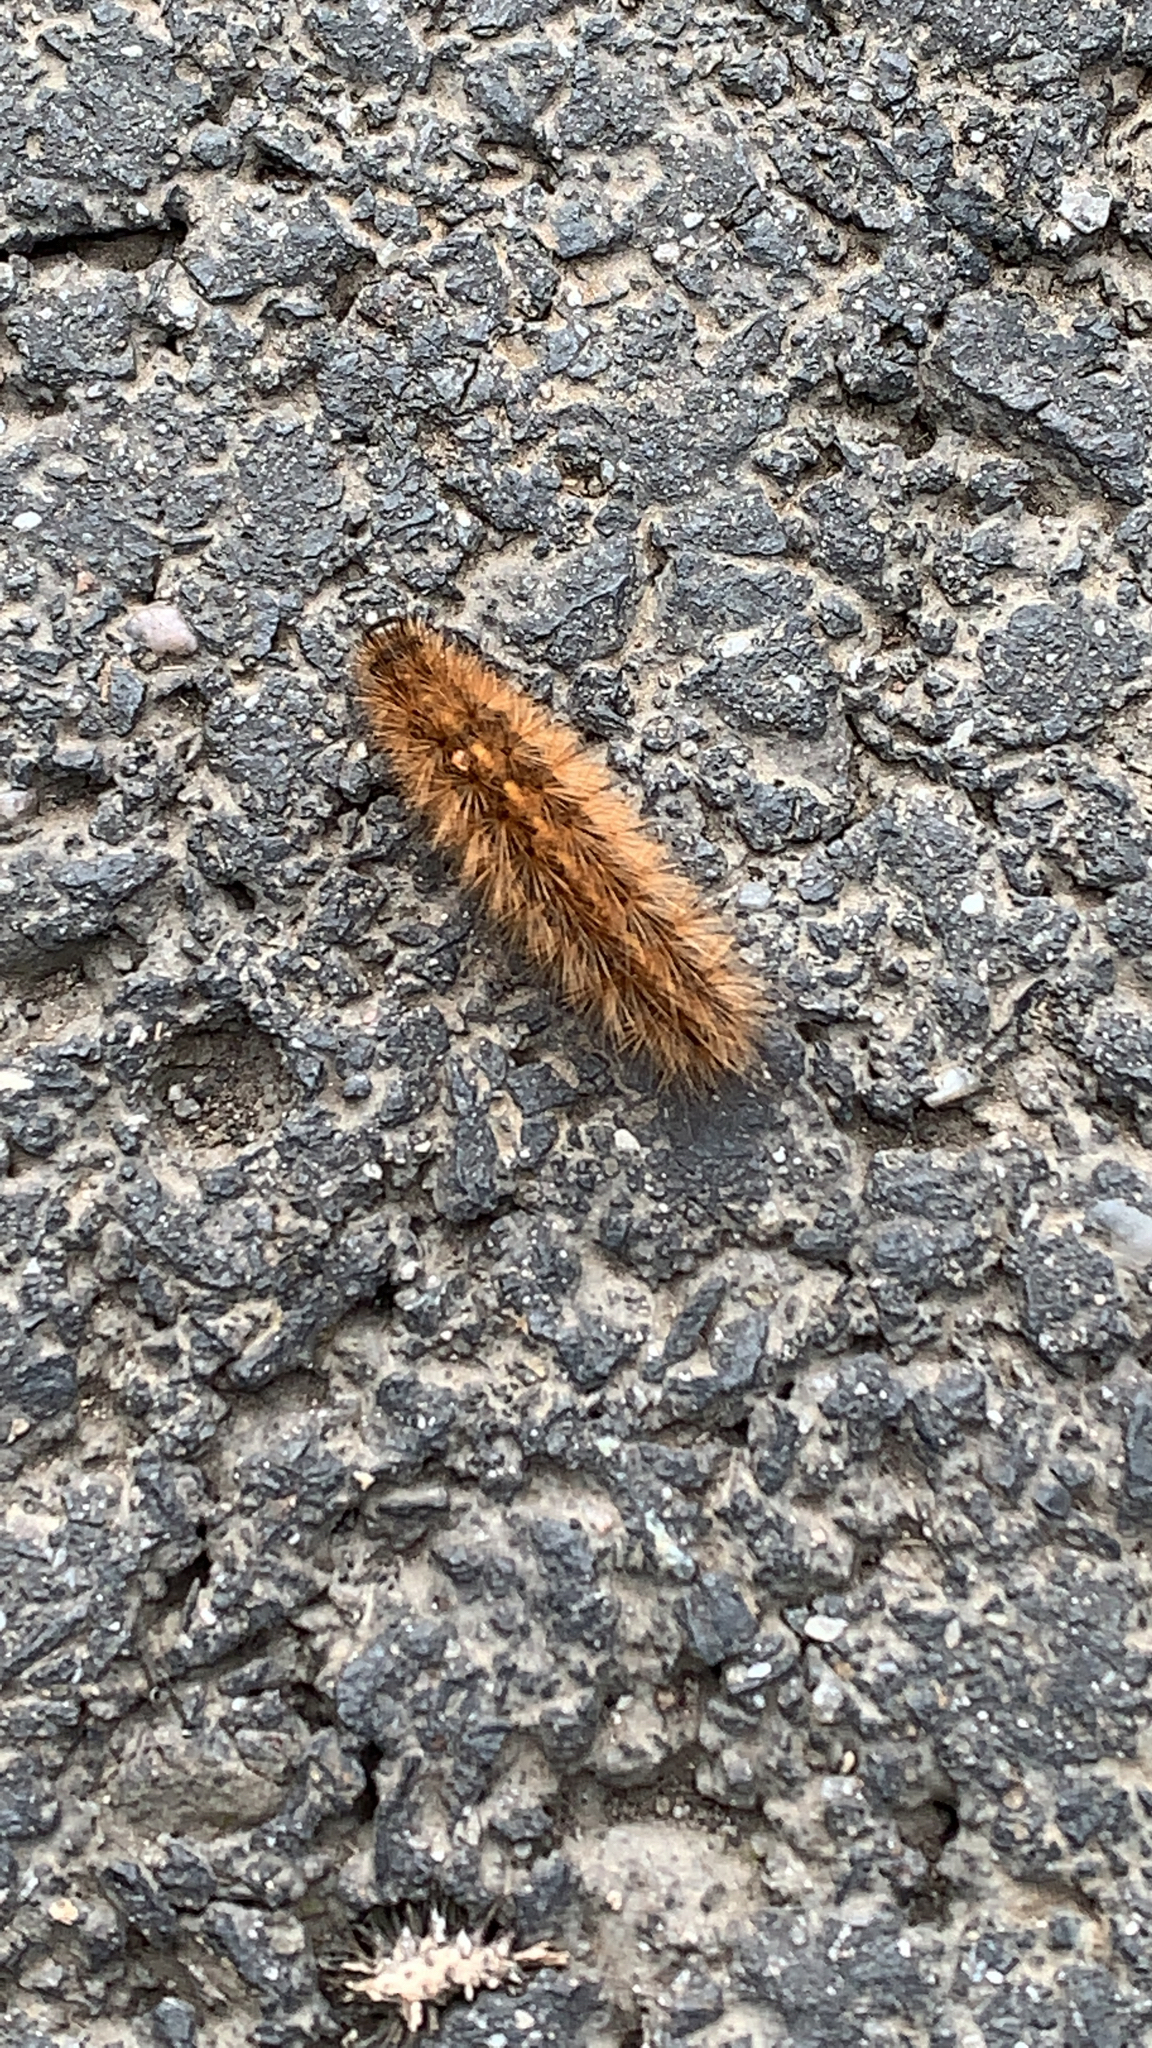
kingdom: Animalia
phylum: Arthropoda
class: Insecta
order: Lepidoptera
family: Erebidae
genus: Phragmatobia
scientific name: Phragmatobia fuliginosa
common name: Ruby tiger
